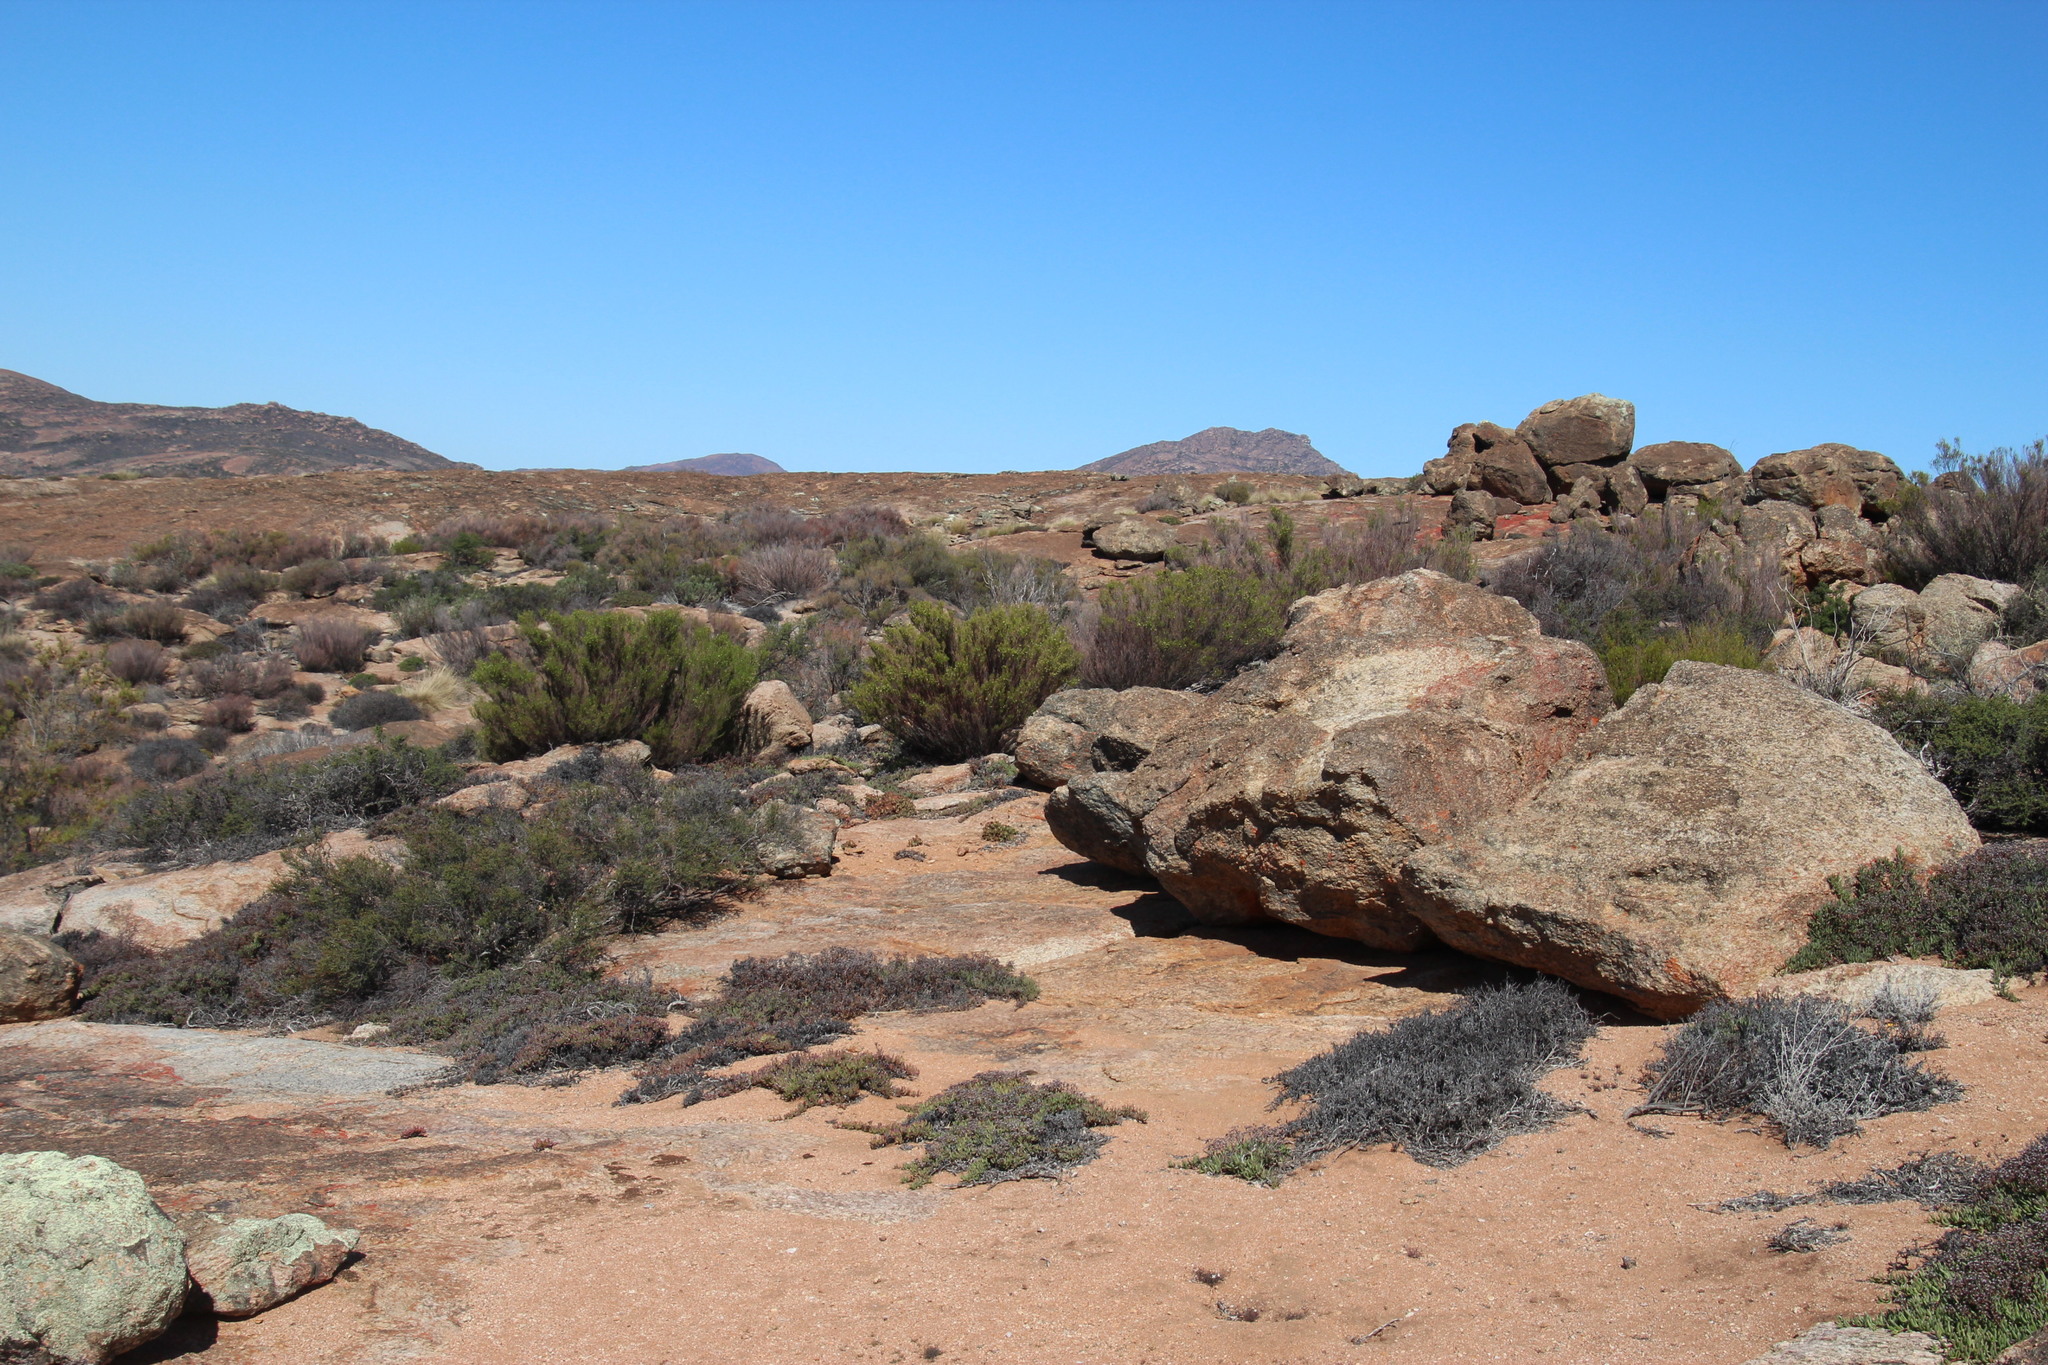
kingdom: Plantae
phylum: Tracheophyta
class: Magnoliopsida
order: Sapindales
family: Rutaceae
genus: Diosma
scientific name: Diosma acmaeophylla
